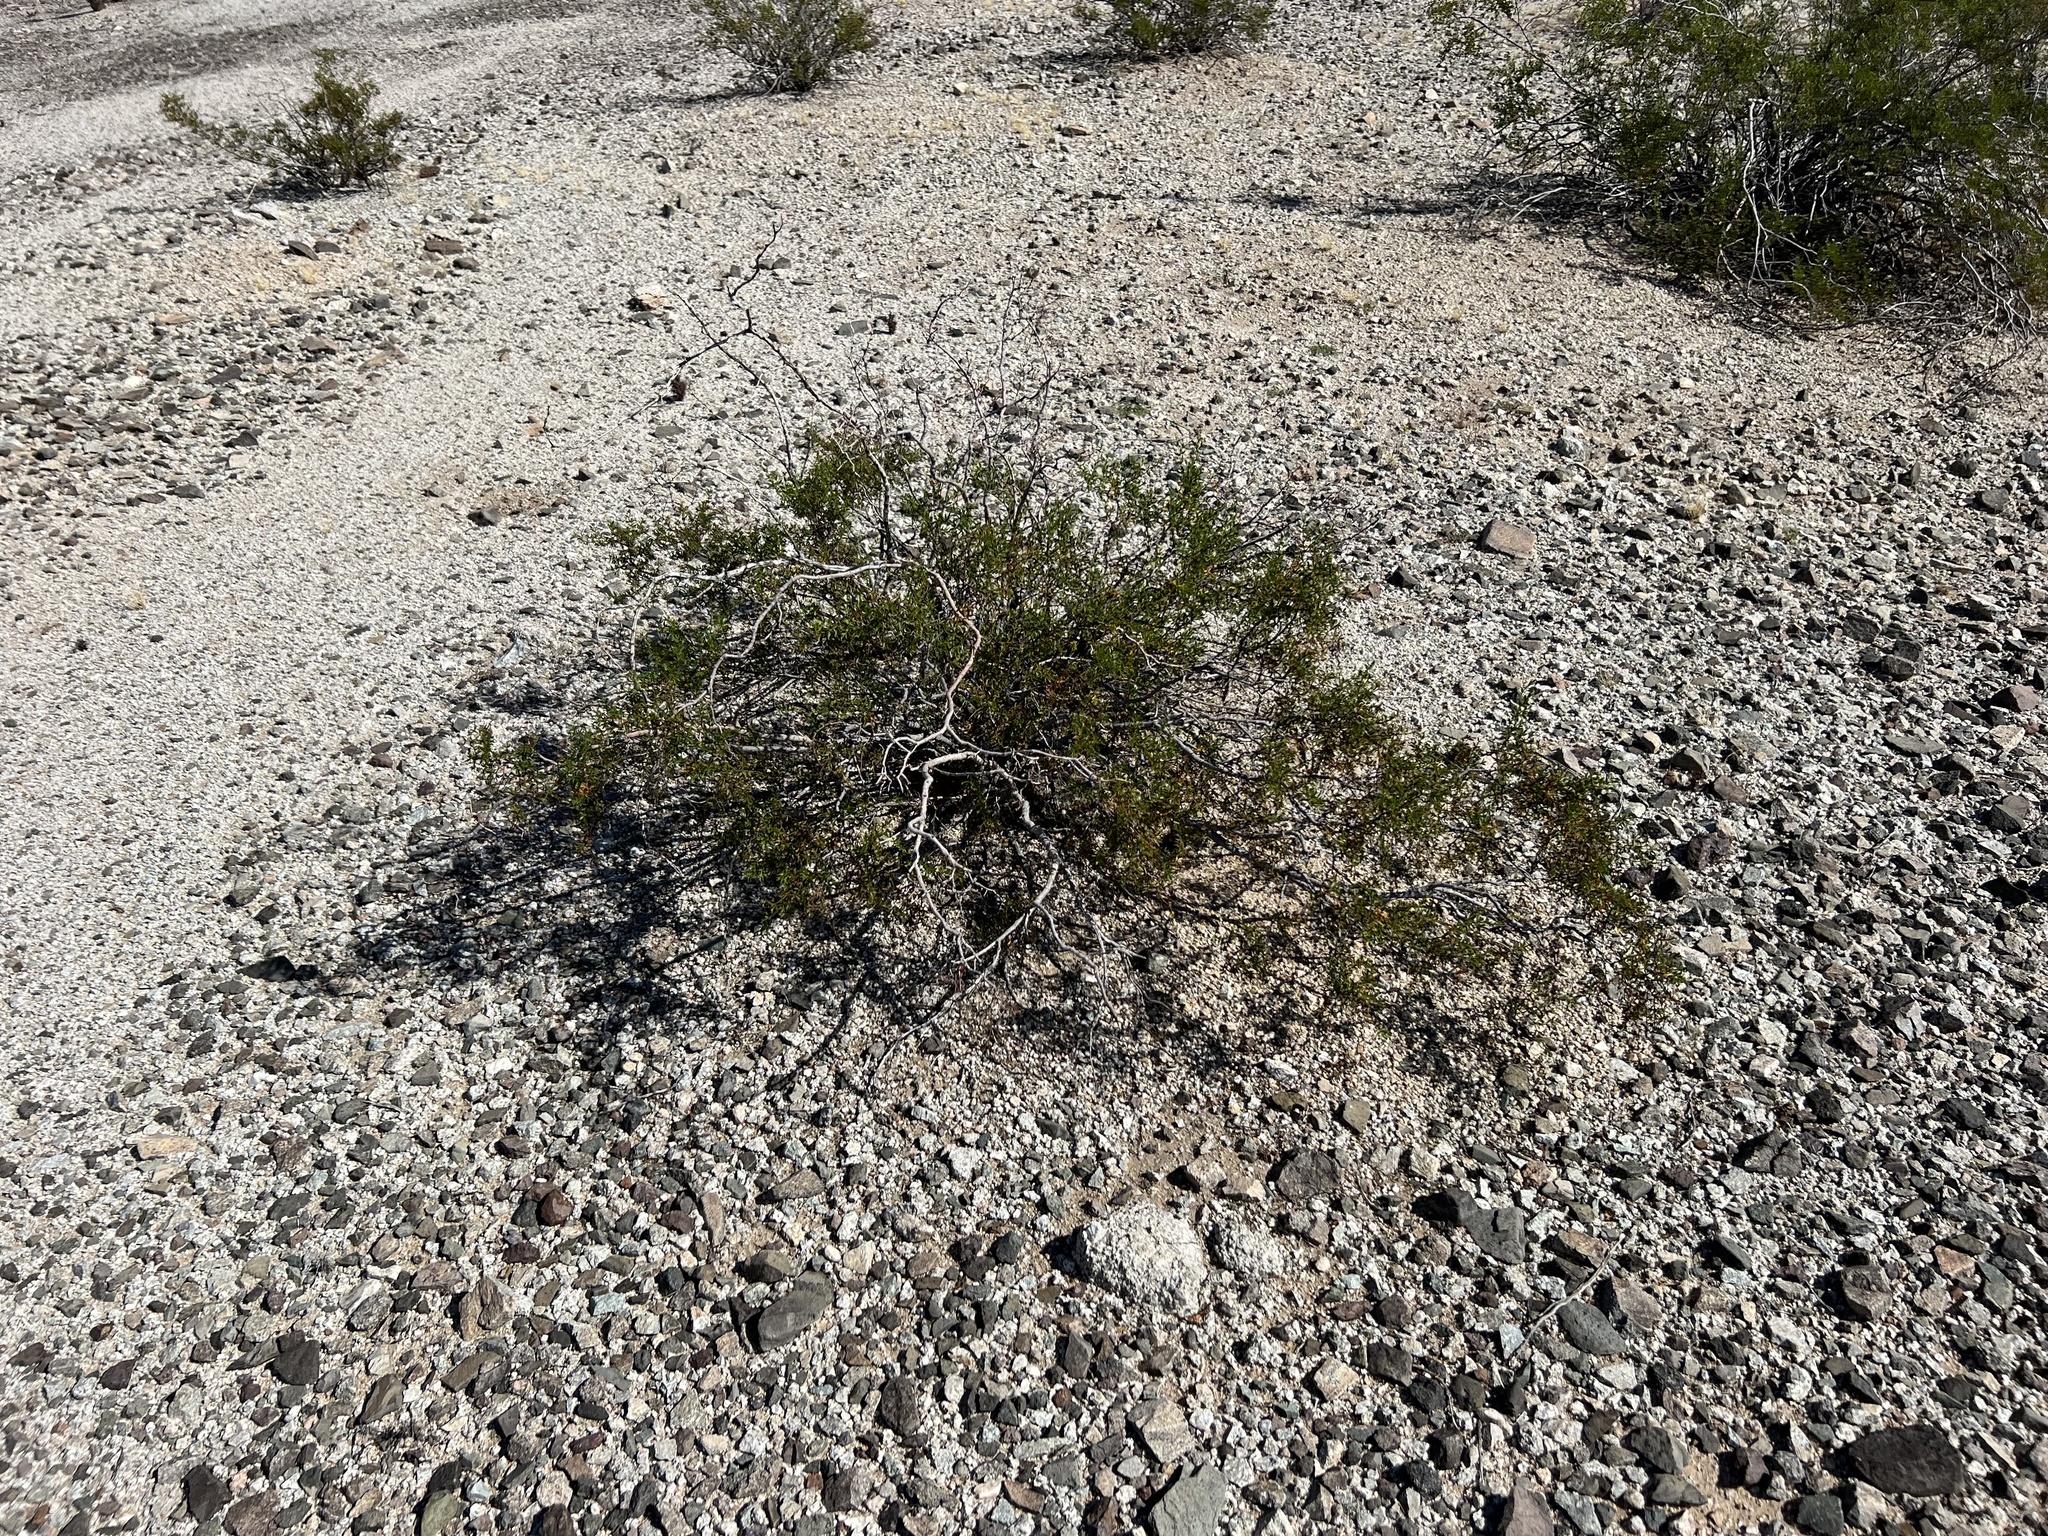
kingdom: Plantae
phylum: Tracheophyta
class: Magnoliopsida
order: Zygophyllales
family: Zygophyllaceae
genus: Larrea
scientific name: Larrea tridentata
